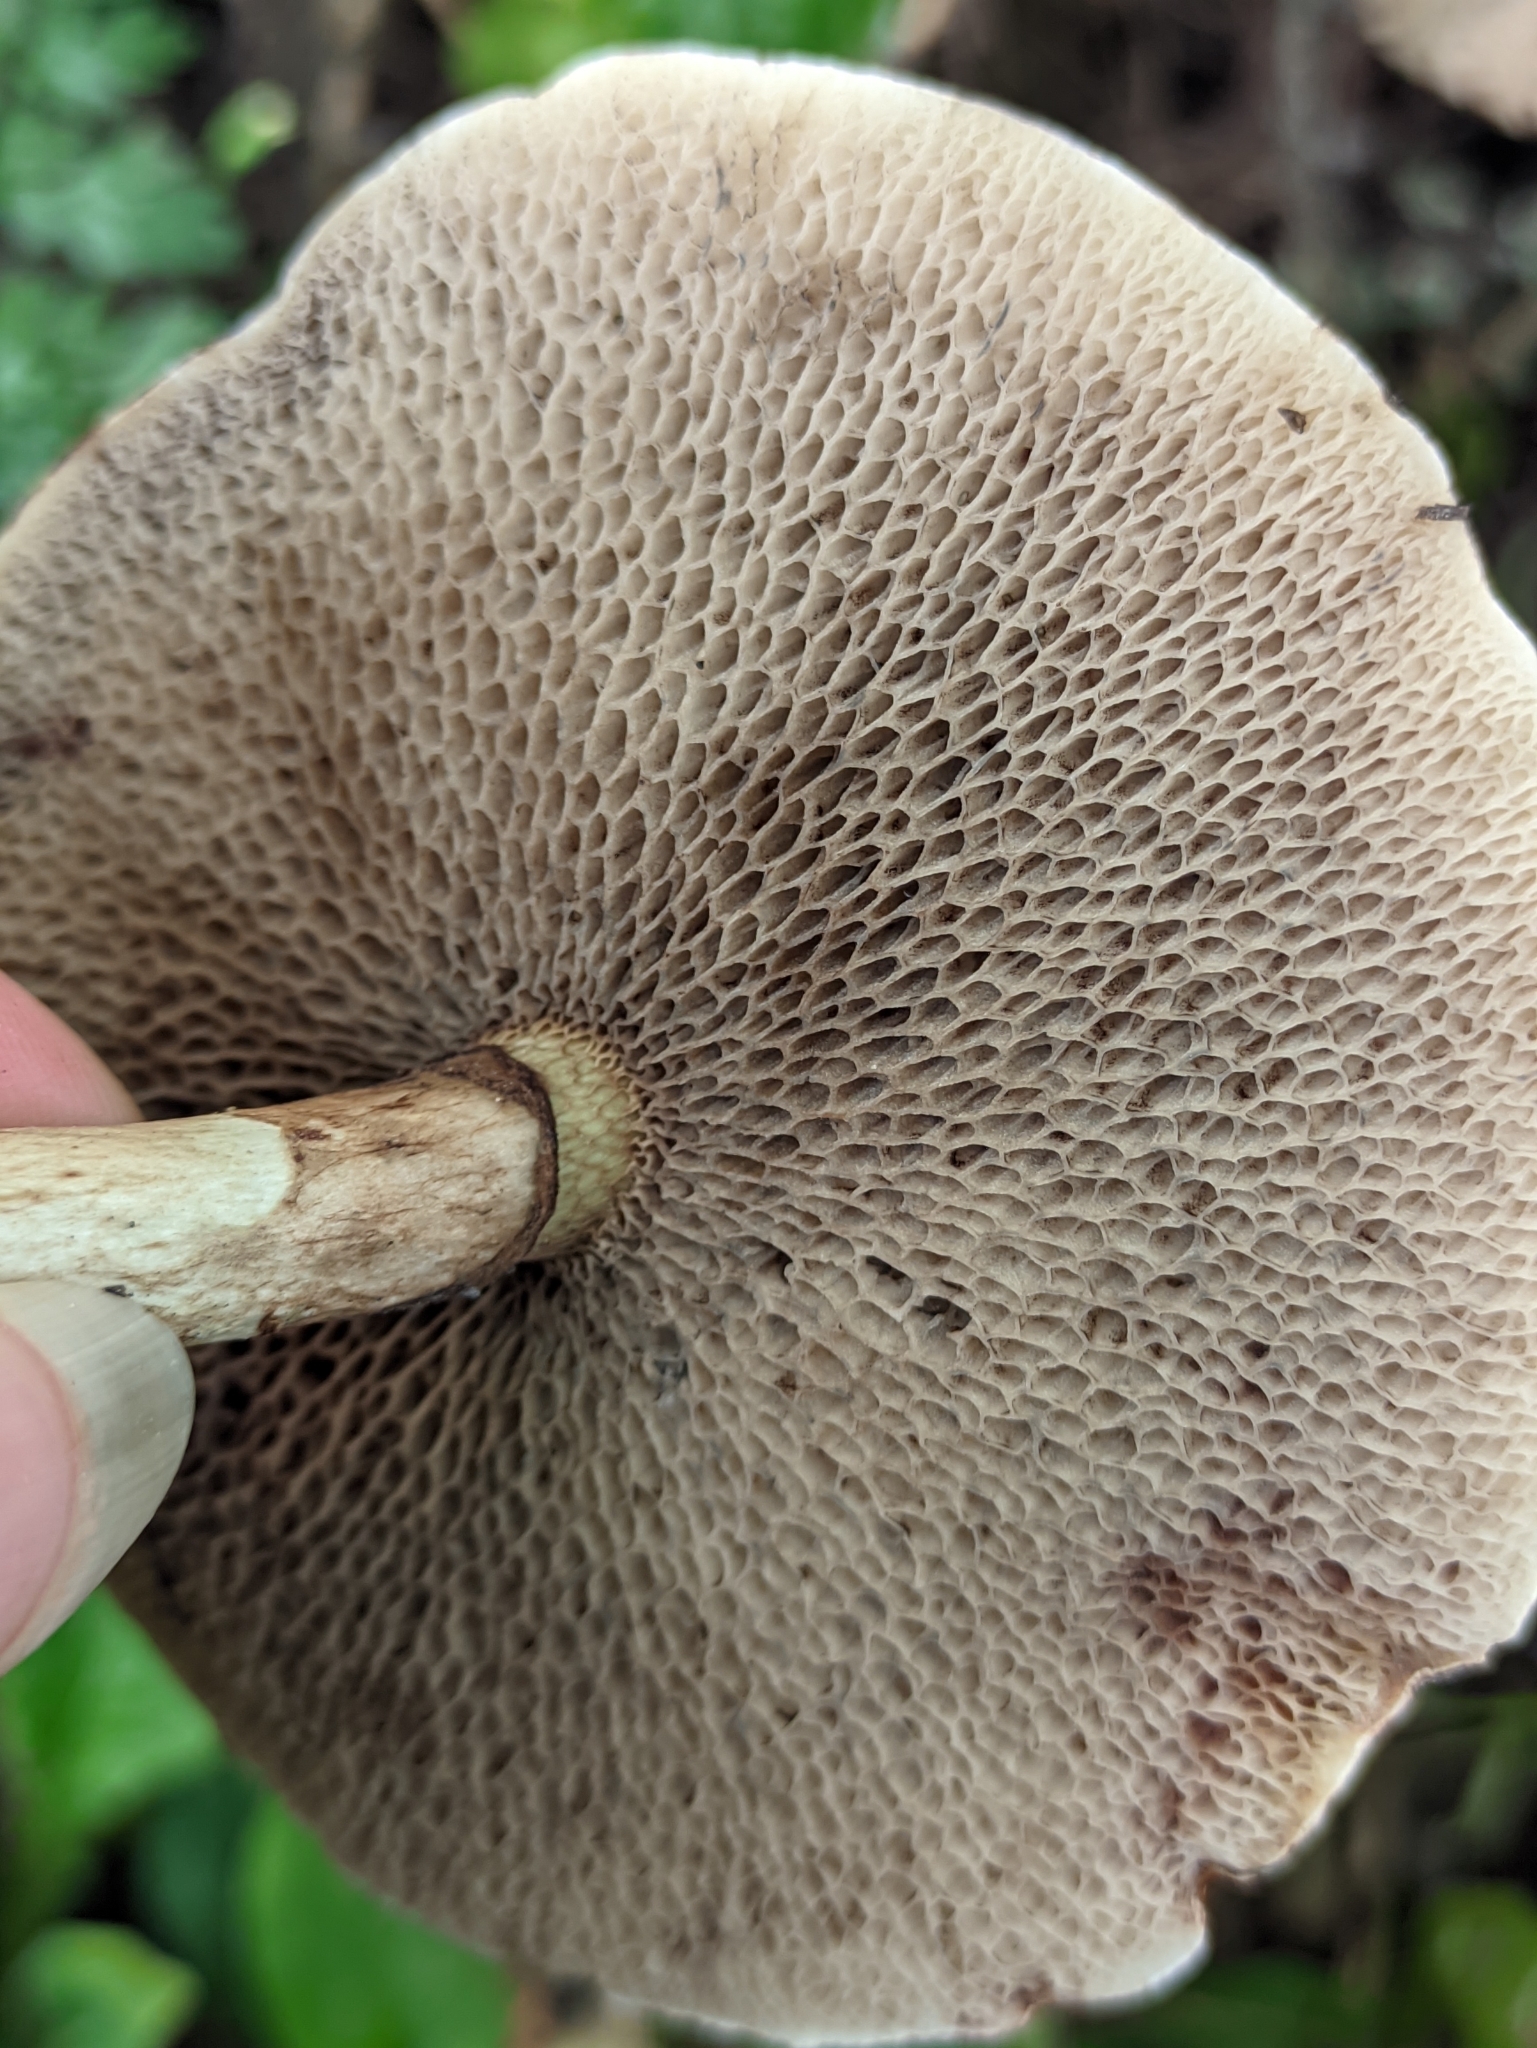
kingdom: Fungi
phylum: Basidiomycota
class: Agaricomycetes
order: Boletales
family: Suillaceae
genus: Suillus
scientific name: Suillus viscidus
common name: Sticky bolete
